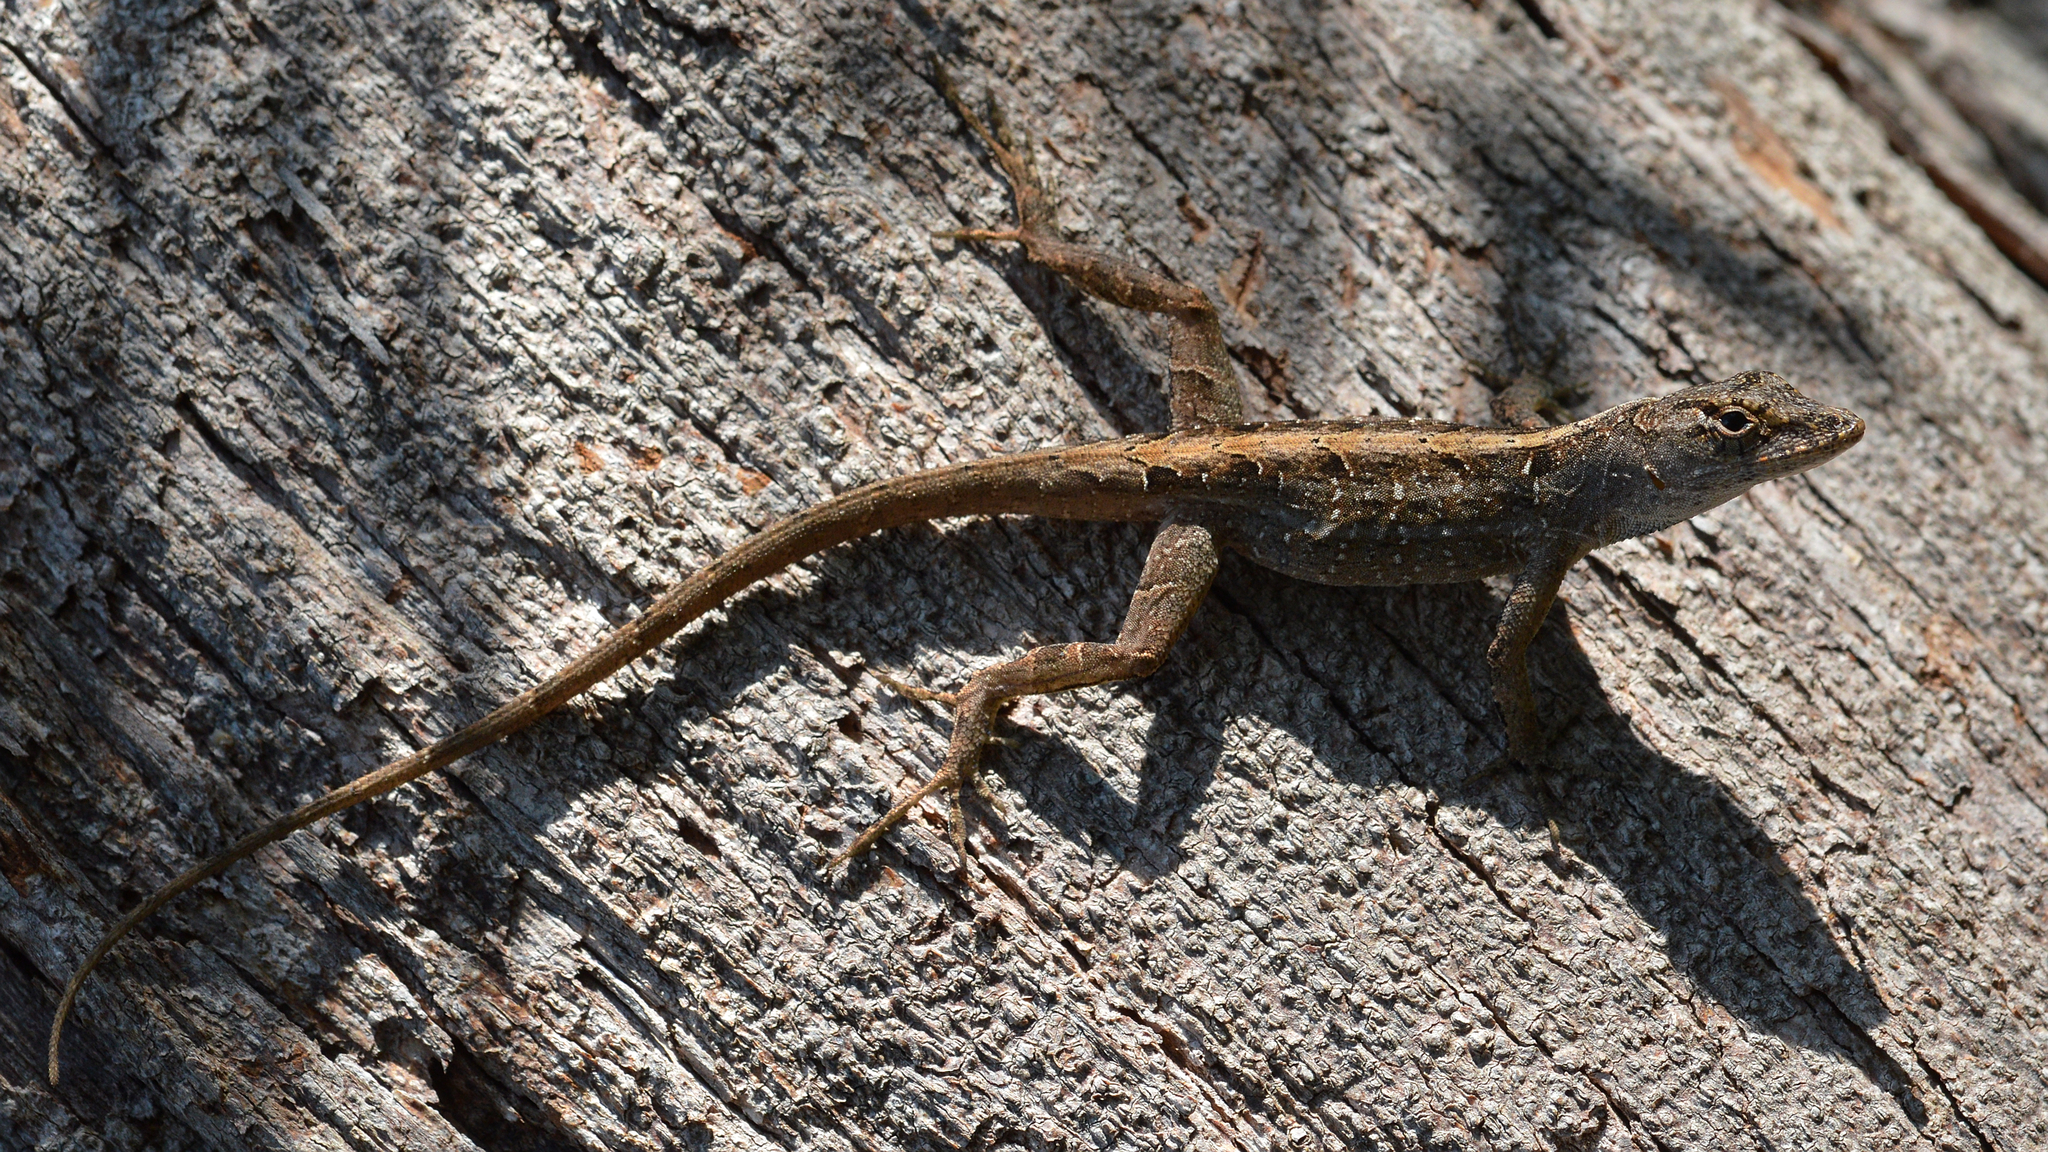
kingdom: Animalia
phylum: Chordata
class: Squamata
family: Dactyloidae
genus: Anolis
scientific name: Anolis sagrei
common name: Brown anole
